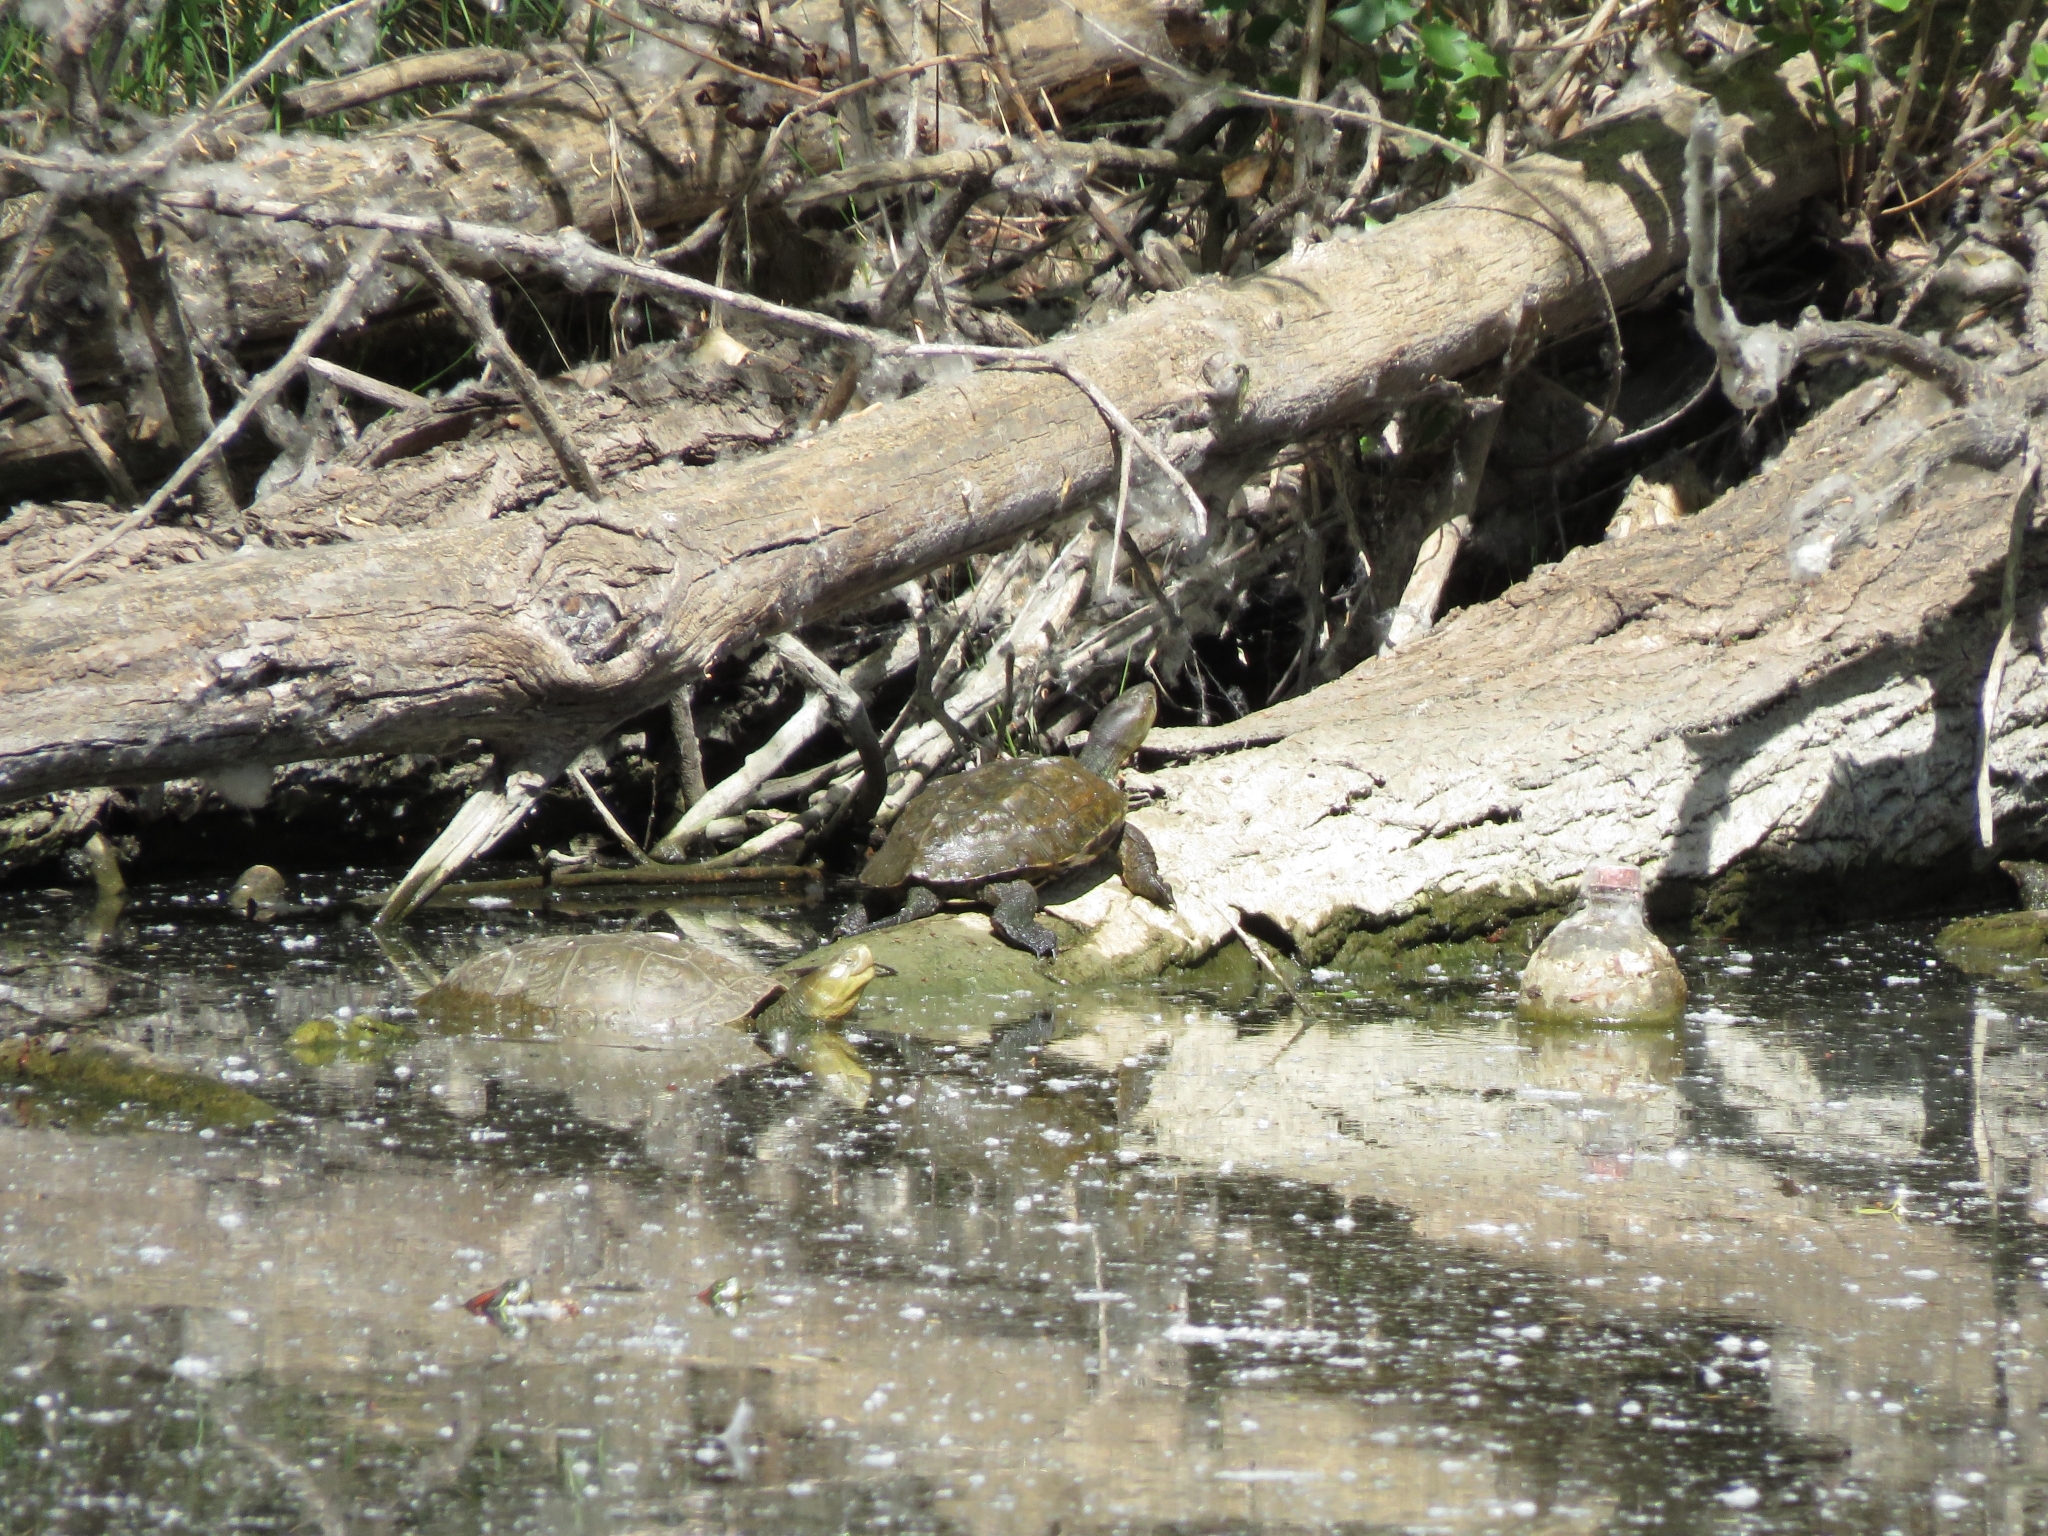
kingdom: Animalia
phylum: Chordata
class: Testudines
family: Geoemydidae
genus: Mauremys
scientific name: Mauremys leprosa
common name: Mediterranean pond turtle
